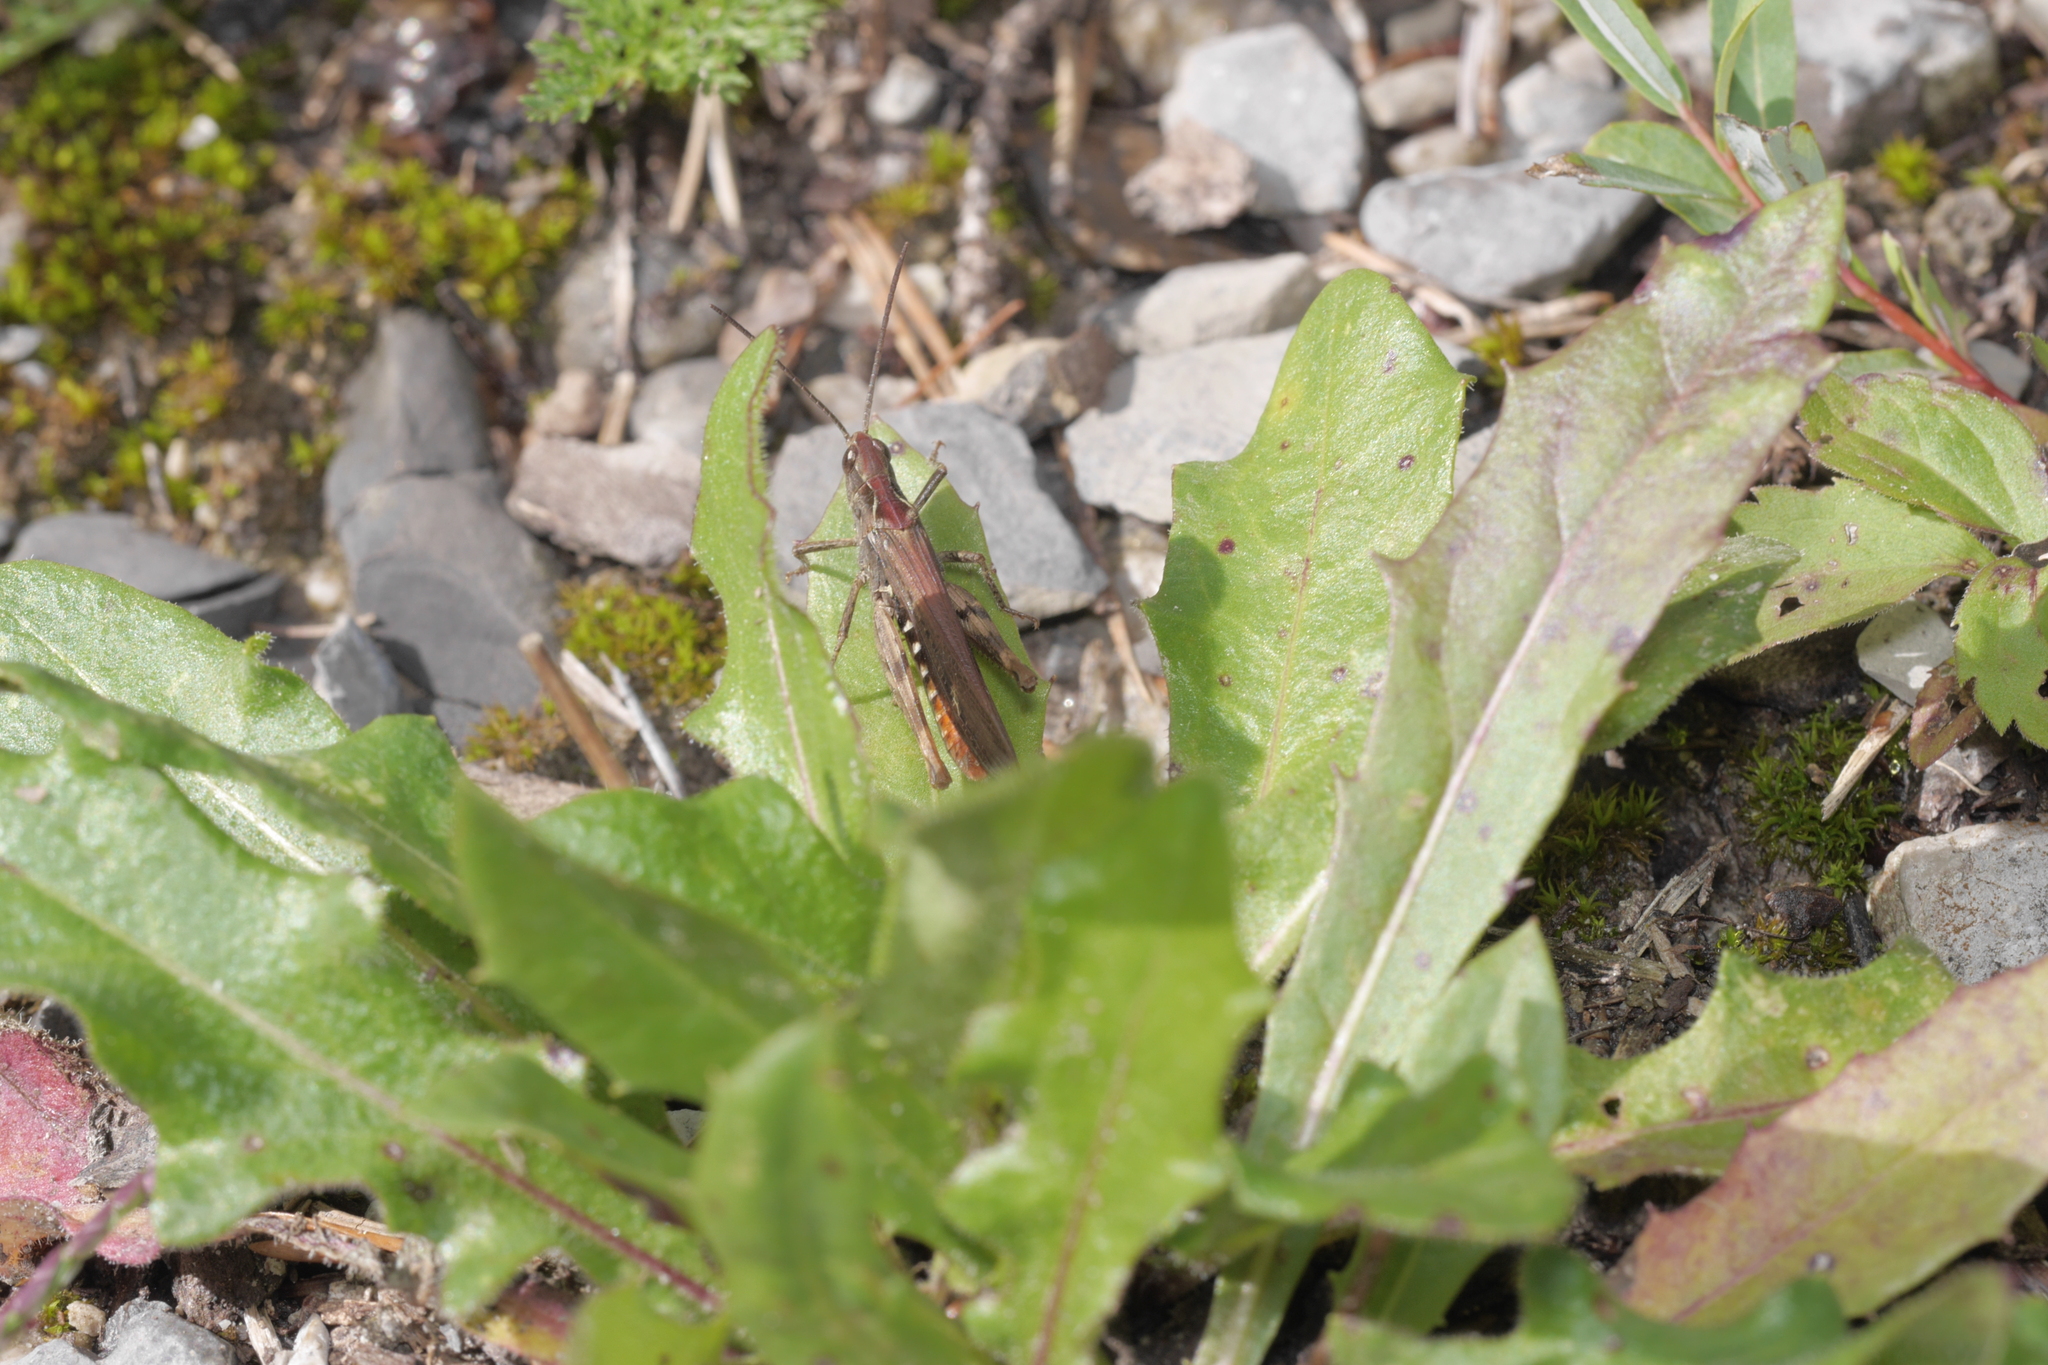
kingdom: Animalia
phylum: Arthropoda
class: Insecta
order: Orthoptera
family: Acrididae
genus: Chorthippus
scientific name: Chorthippus brunneus
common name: Field grasshopper
